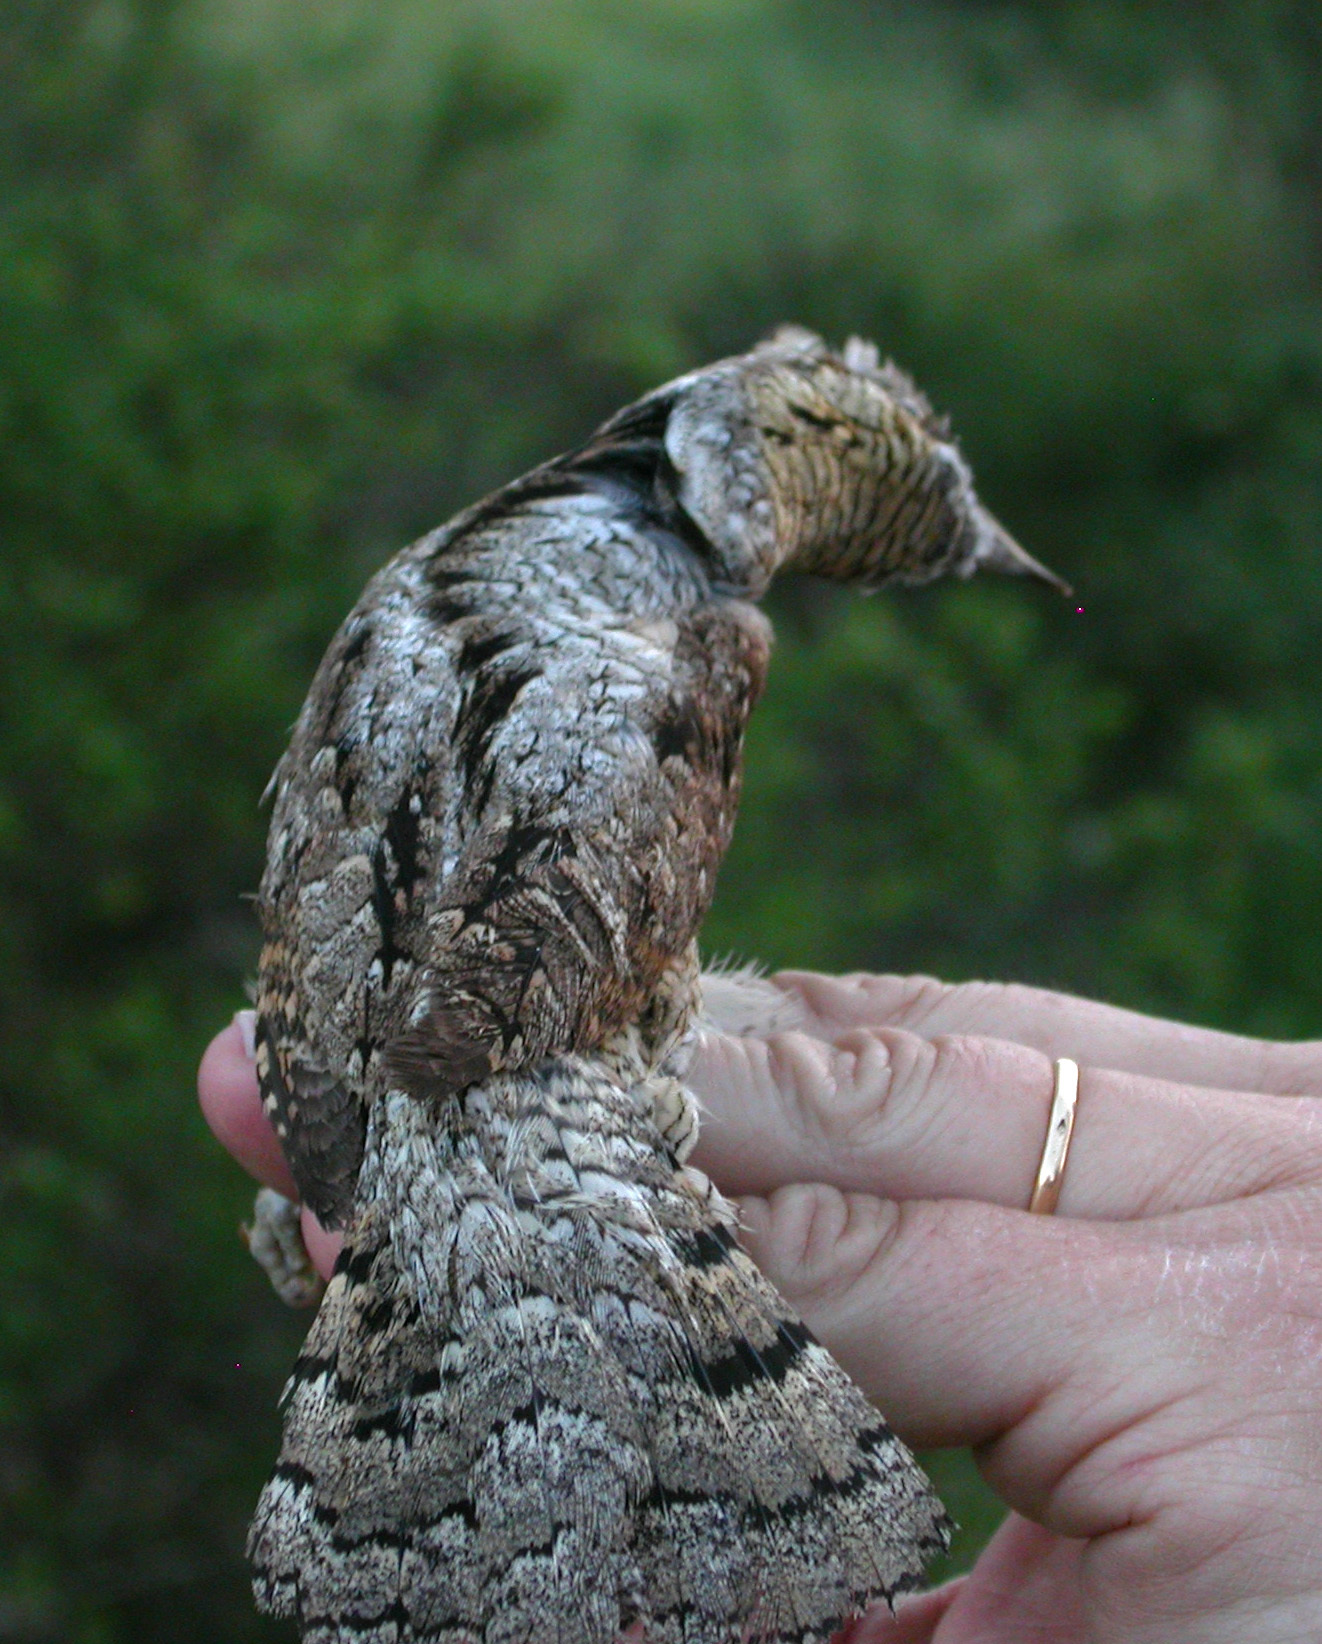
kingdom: Animalia
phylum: Chordata
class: Aves
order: Piciformes
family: Picidae
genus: Jynx
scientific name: Jynx torquilla
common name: Eurasian wryneck
